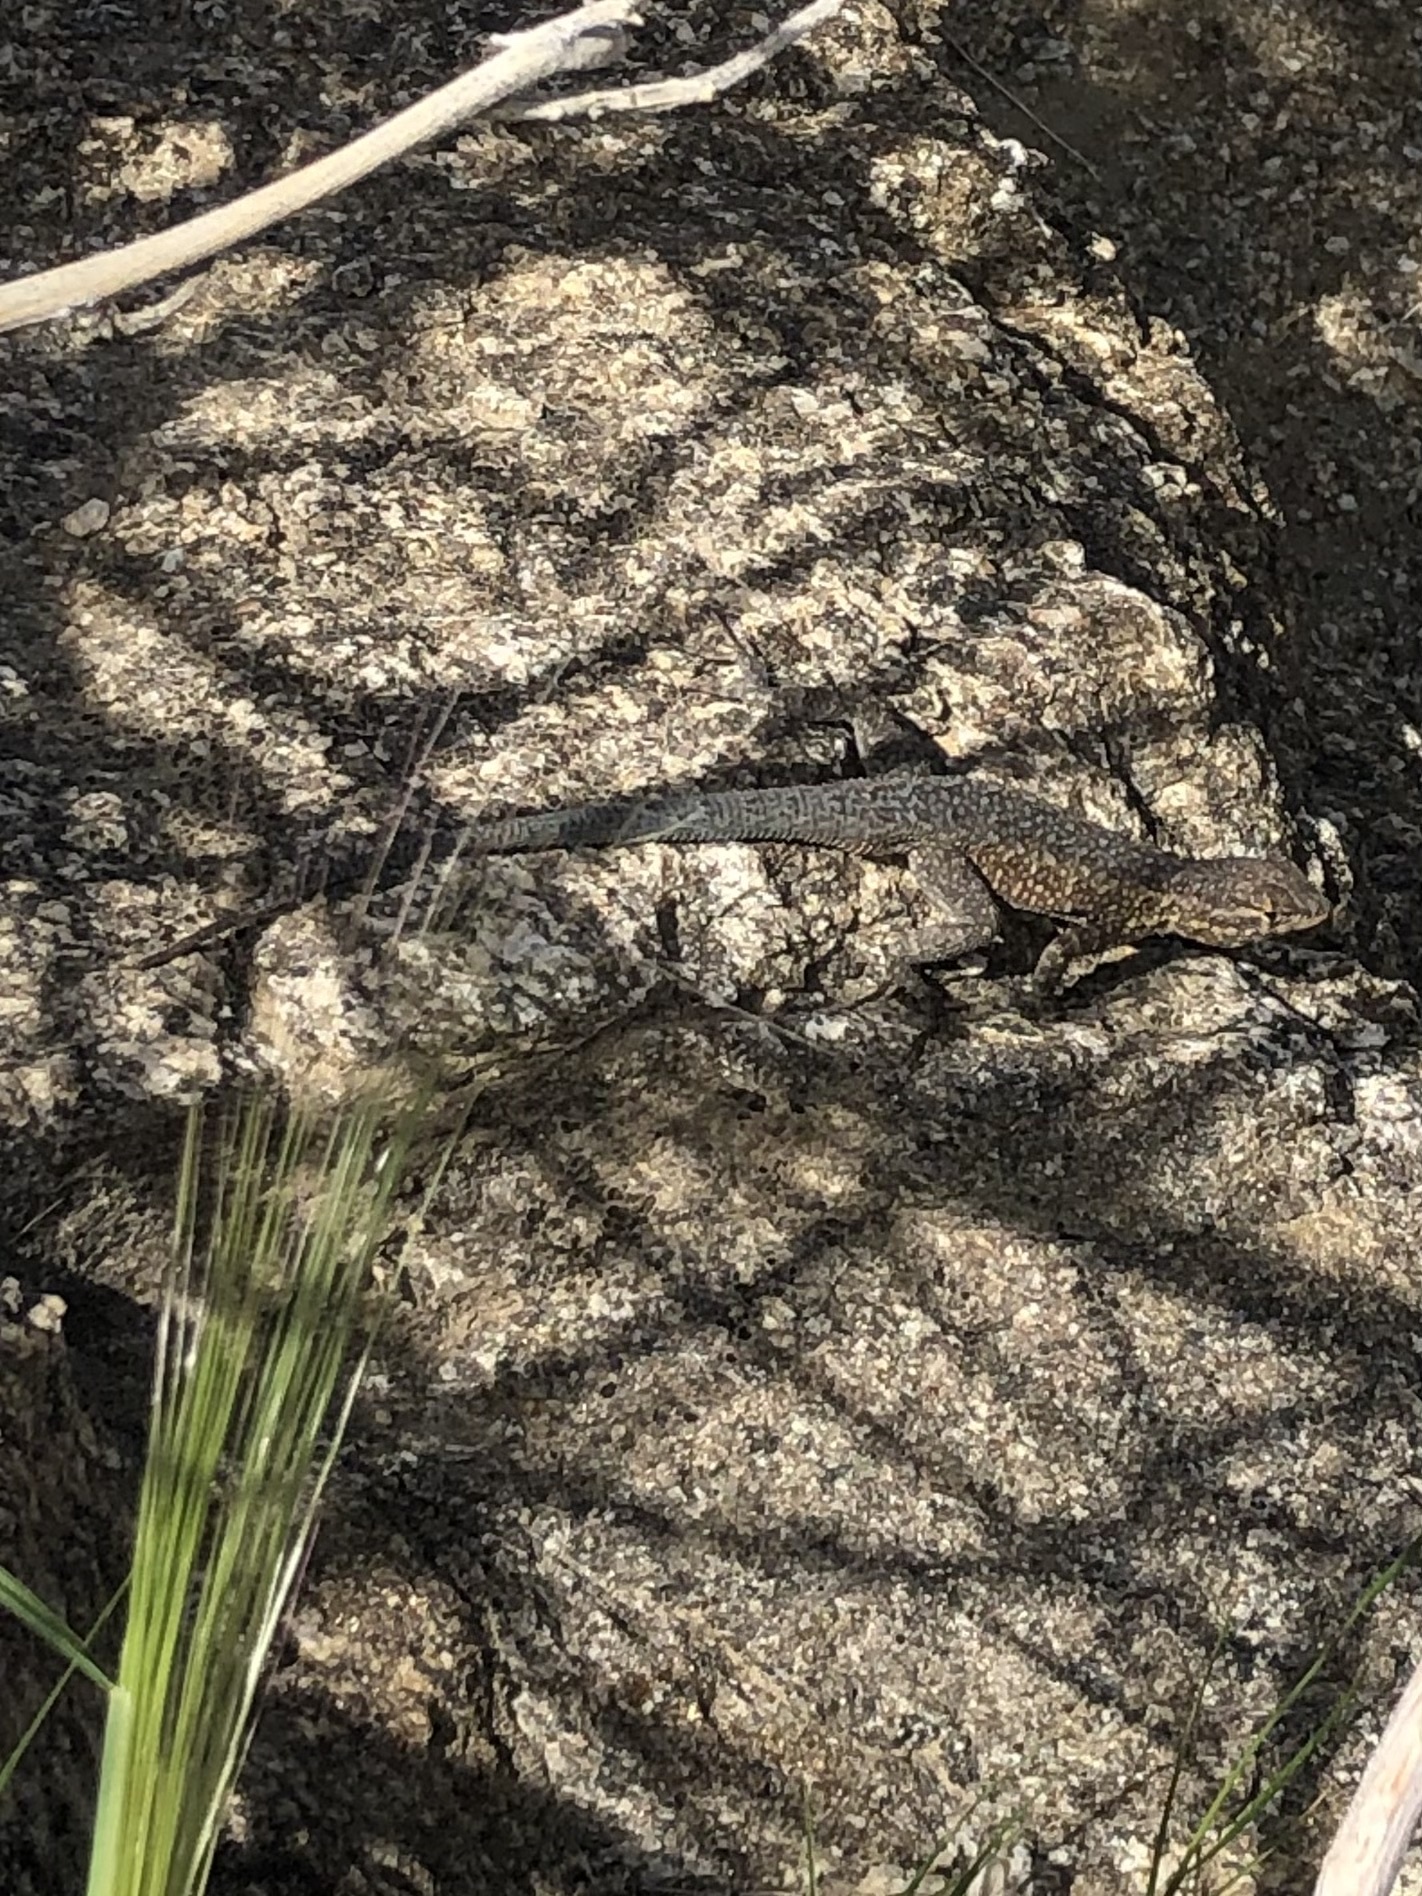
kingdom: Animalia
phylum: Chordata
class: Squamata
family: Phrynosomatidae
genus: Uta
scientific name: Uta stansburiana
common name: Side-blotched lizard
